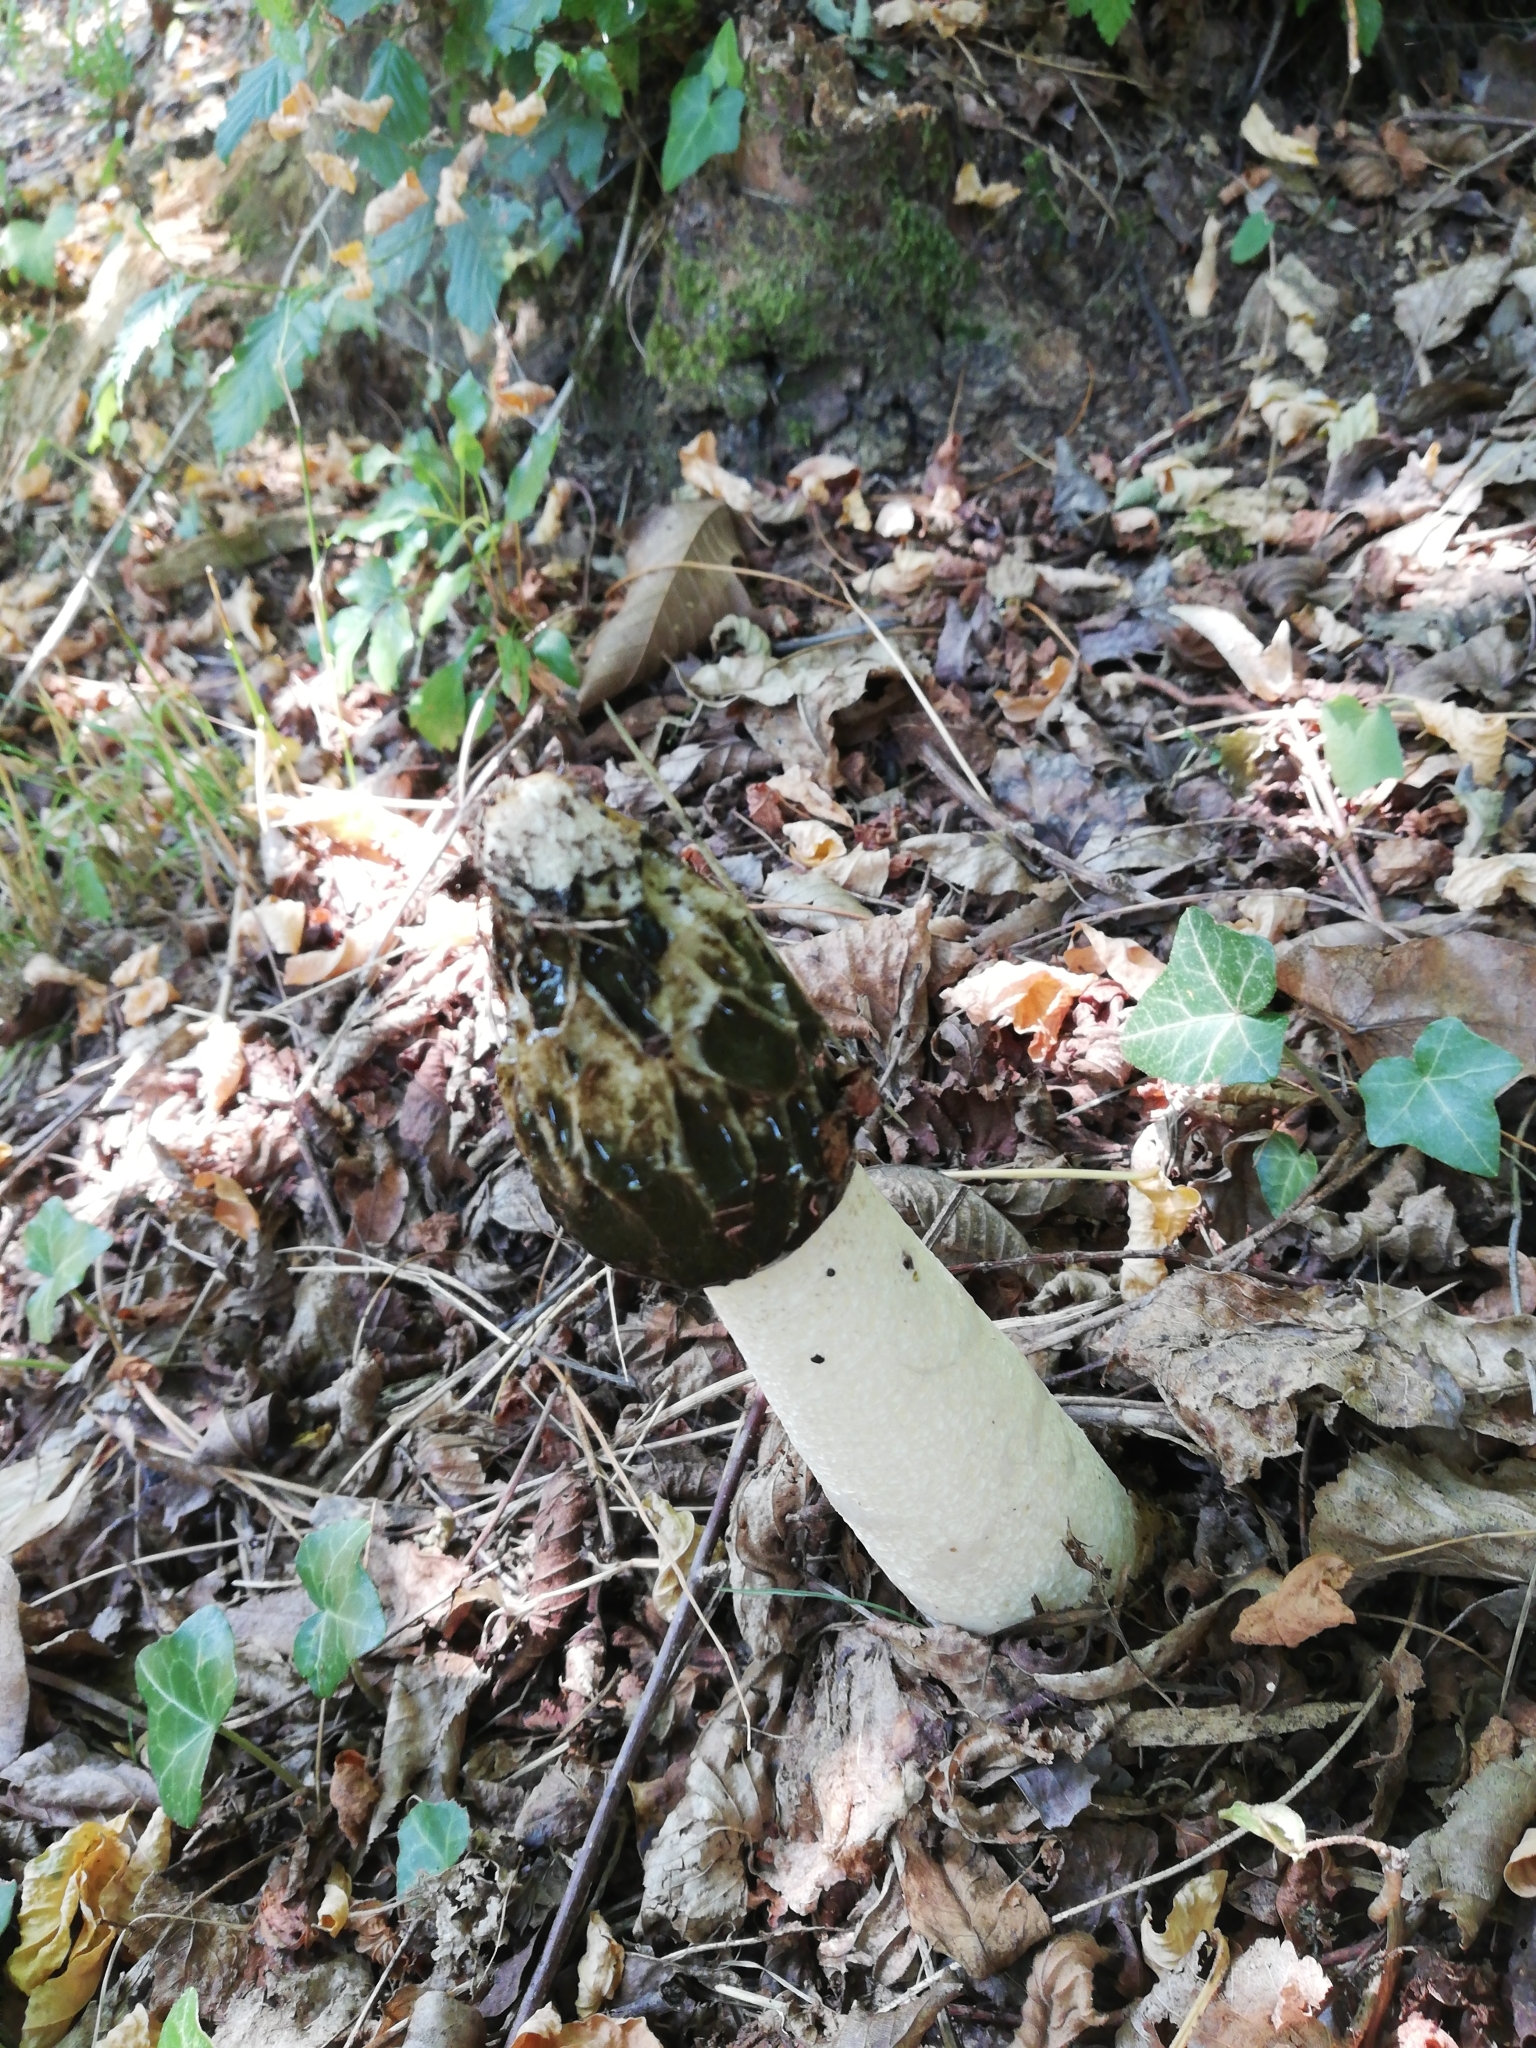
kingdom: Fungi
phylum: Basidiomycota
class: Agaricomycetes
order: Phallales
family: Phallaceae
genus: Phallus
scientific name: Phallus impudicus
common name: Common stinkhorn
